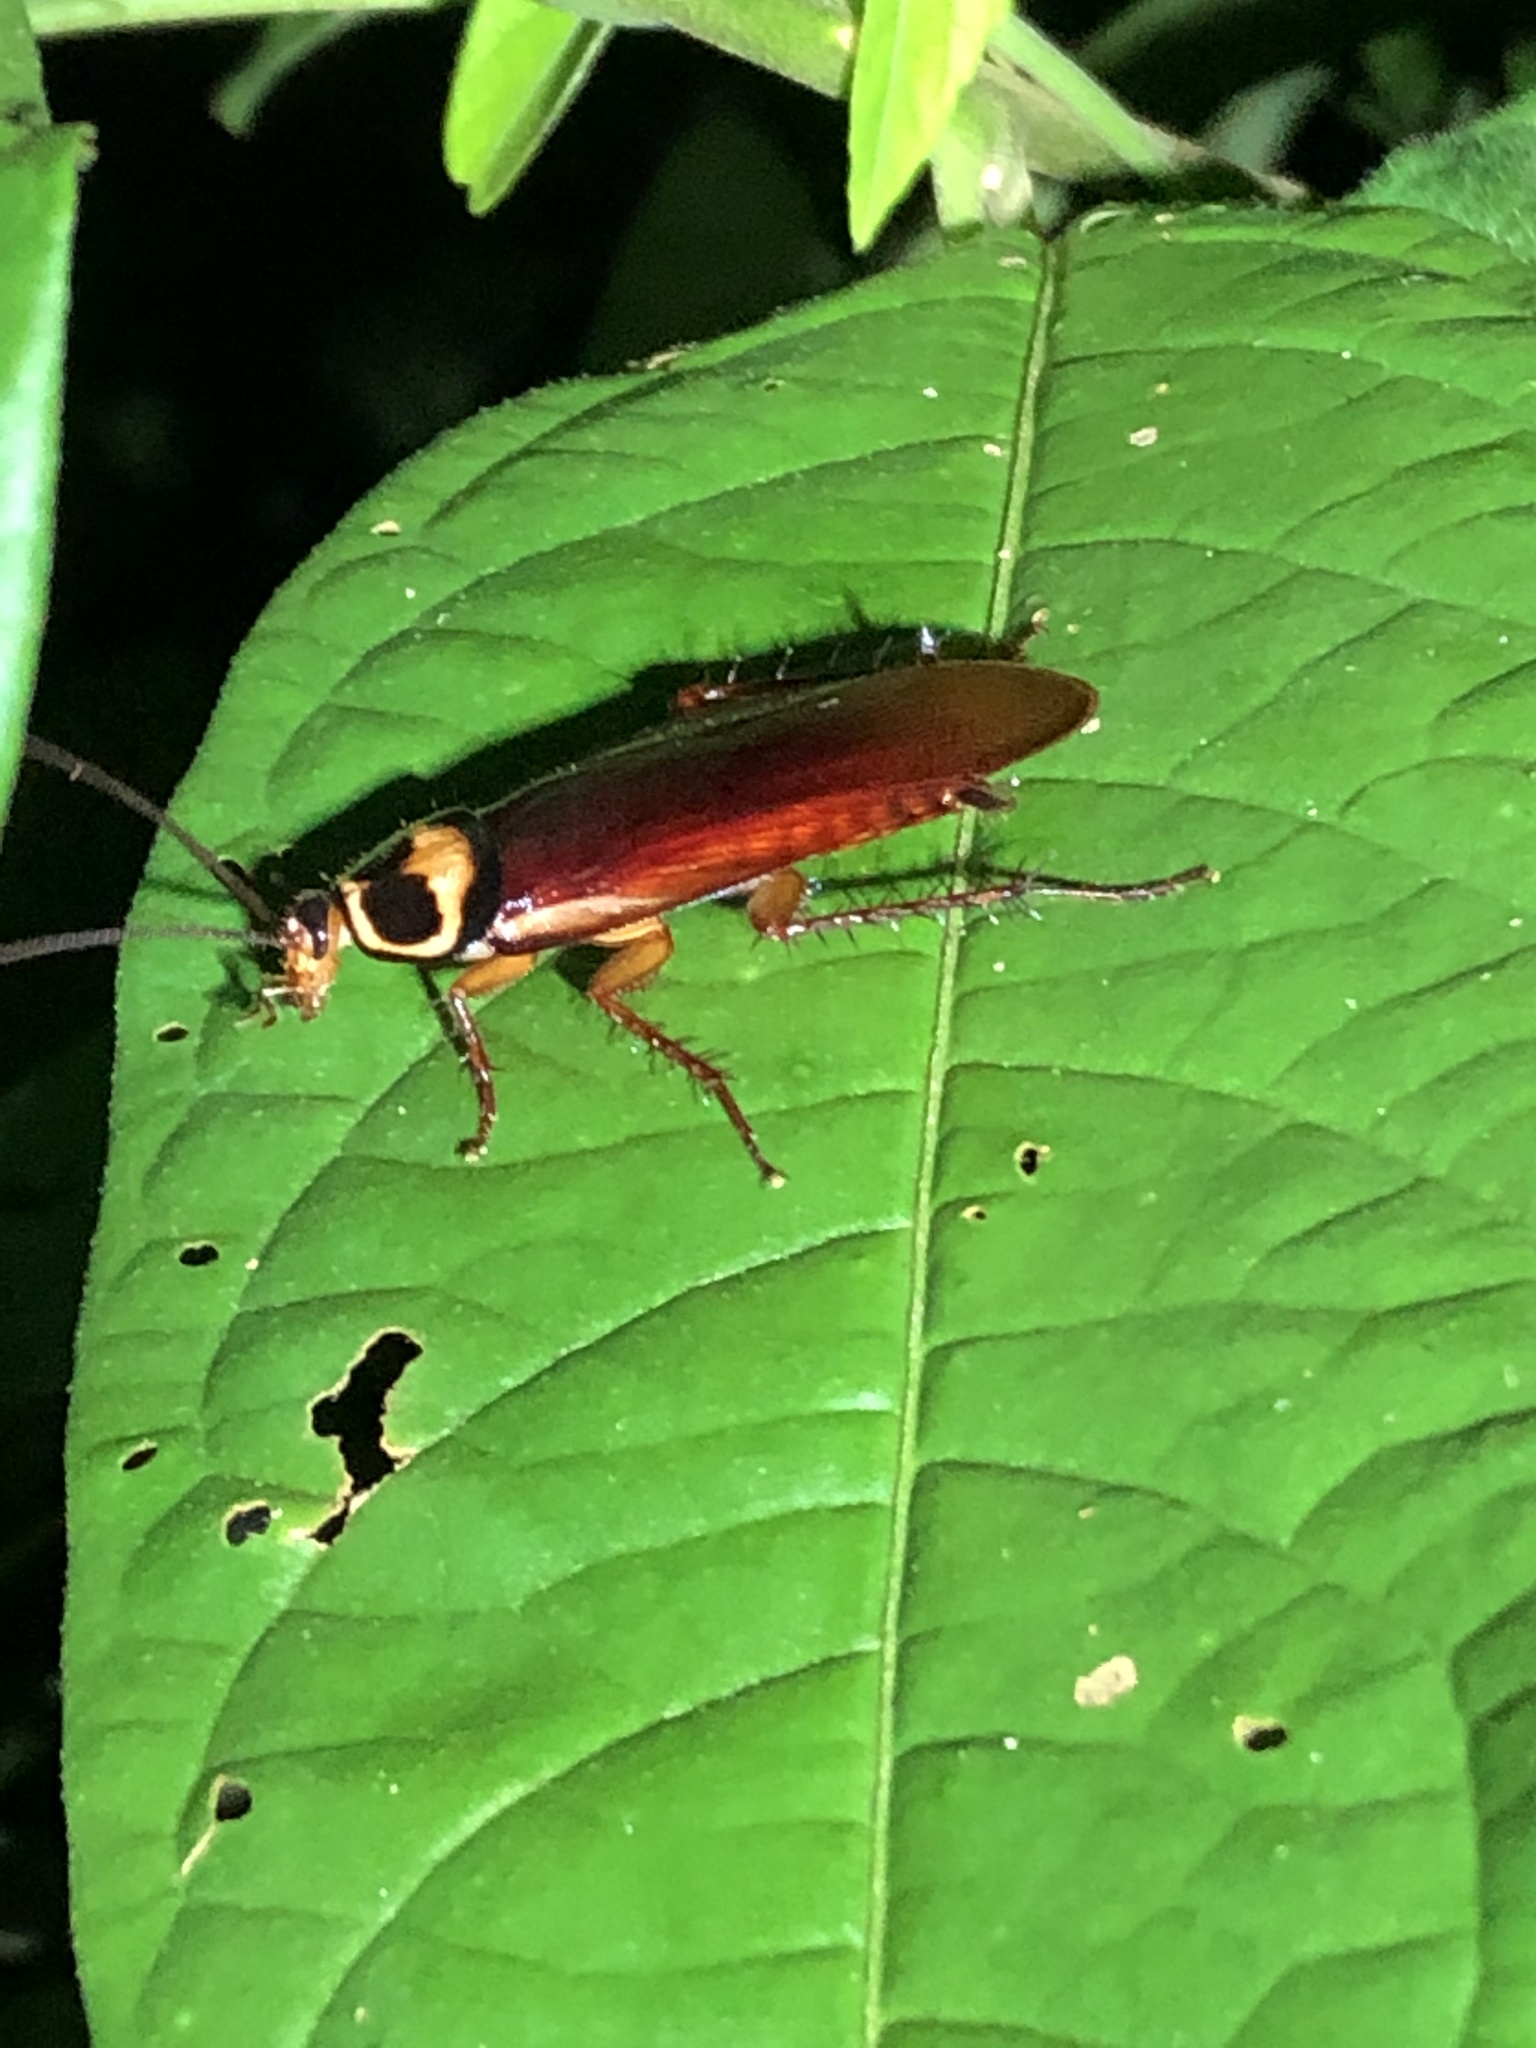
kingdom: Animalia
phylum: Arthropoda
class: Insecta
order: Blattodea
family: Blattidae
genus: Periplaneta
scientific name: Periplaneta australasiae
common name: Australian cockroach
